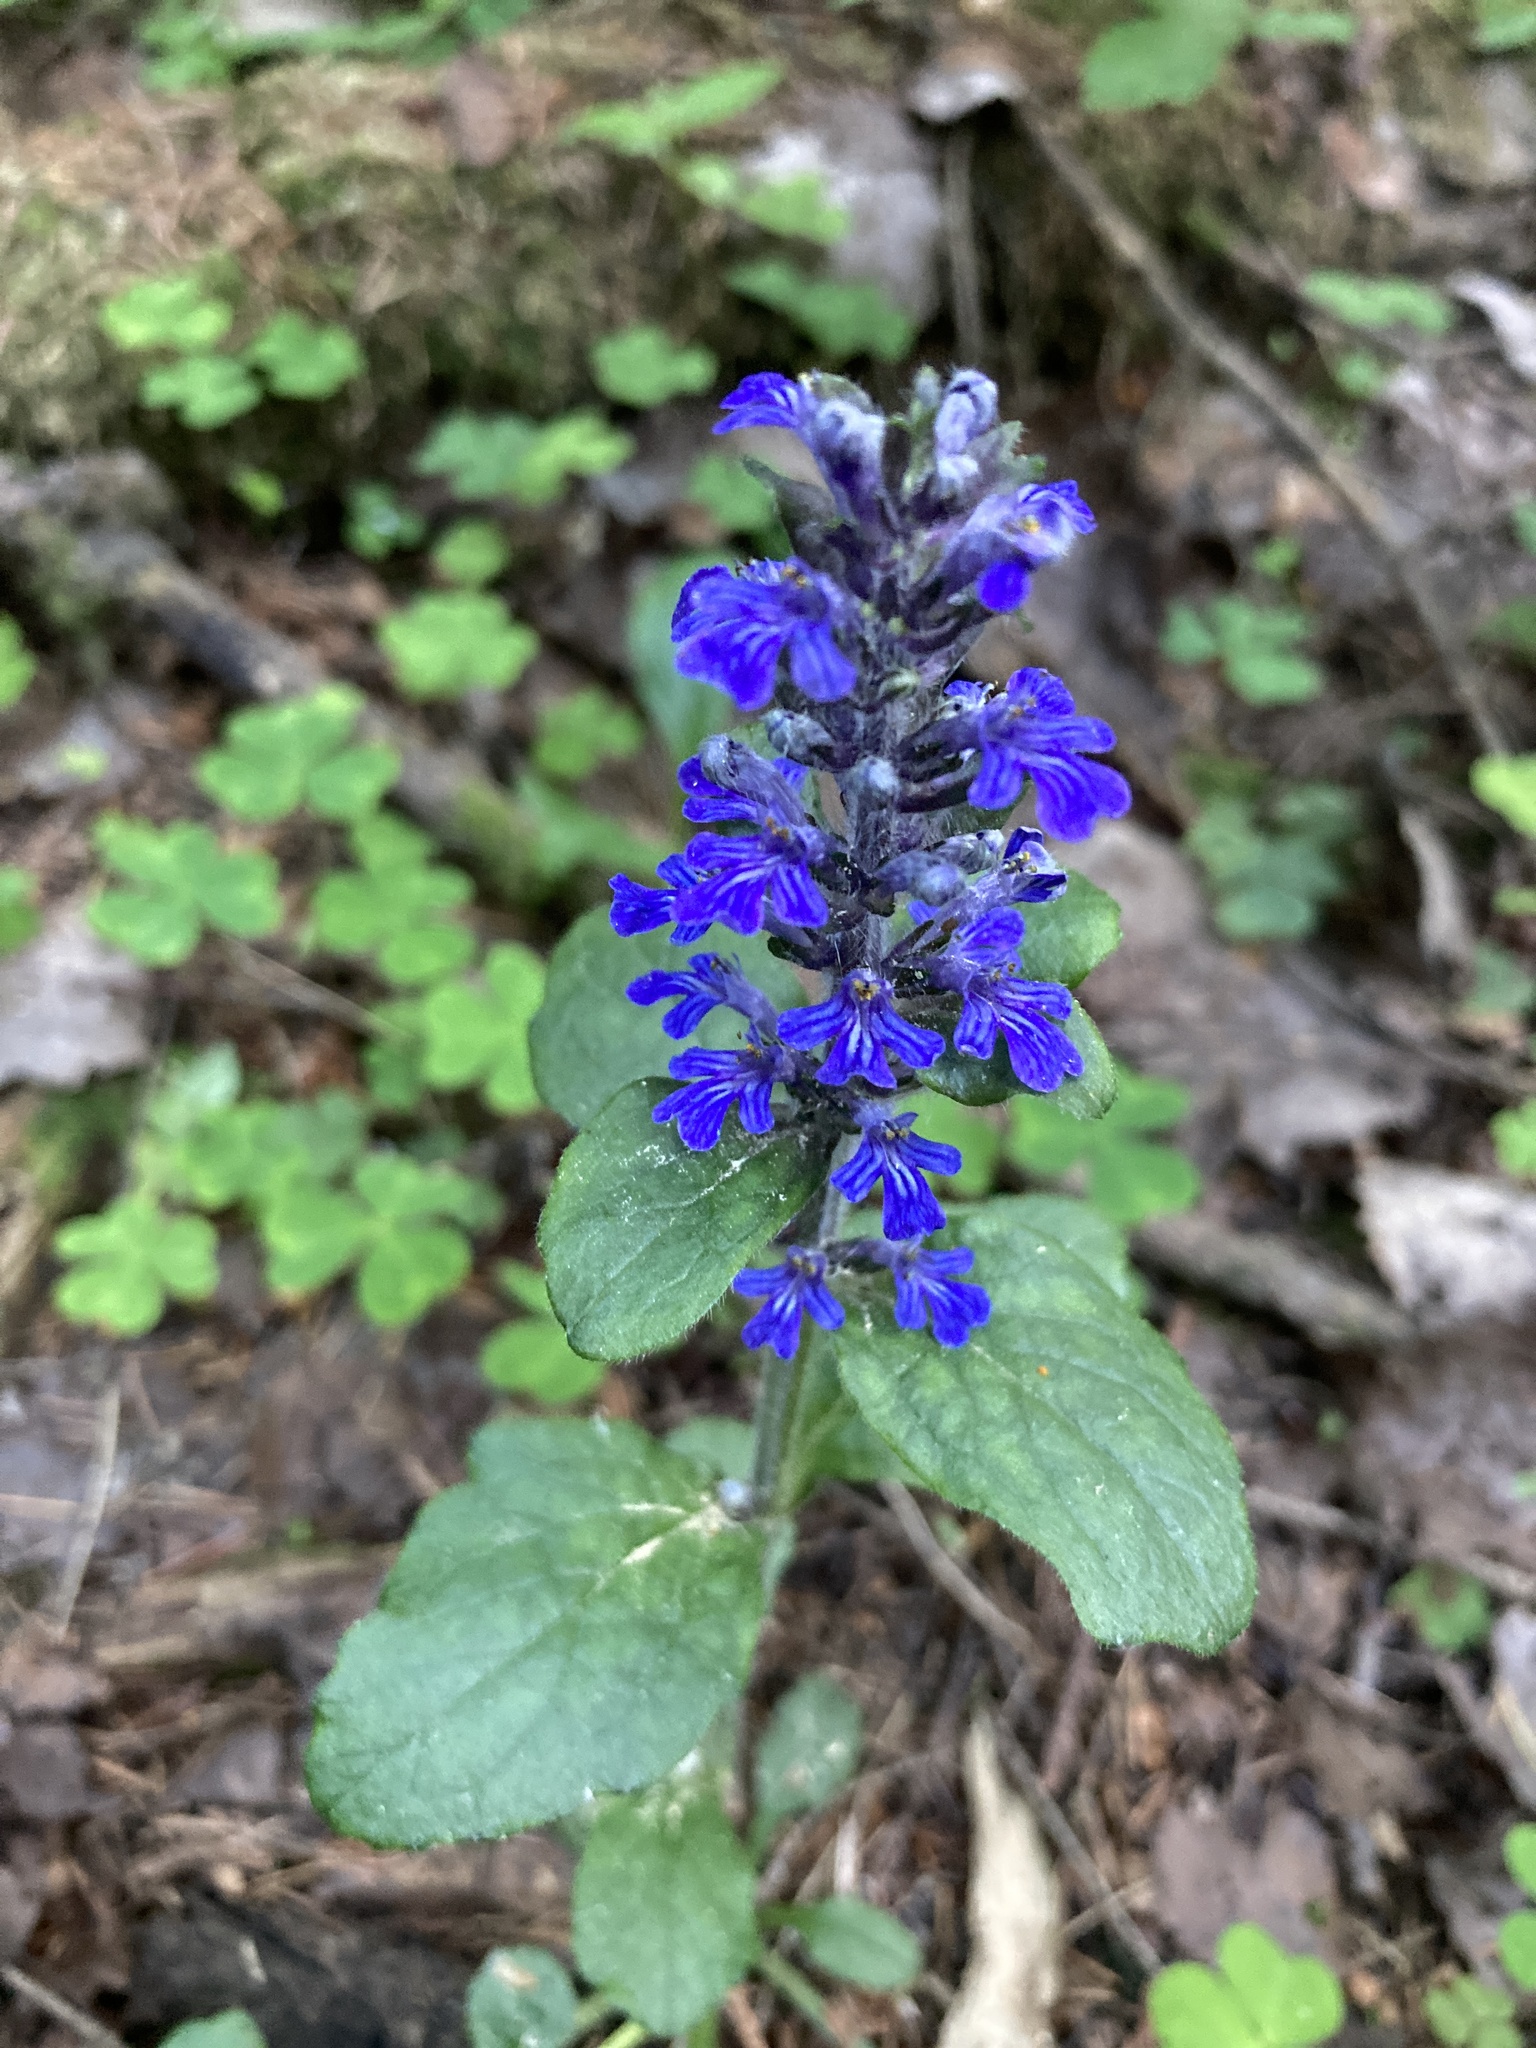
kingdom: Plantae
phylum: Tracheophyta
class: Magnoliopsida
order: Lamiales
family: Lamiaceae
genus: Ajuga
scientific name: Ajuga reptans
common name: Bugle
